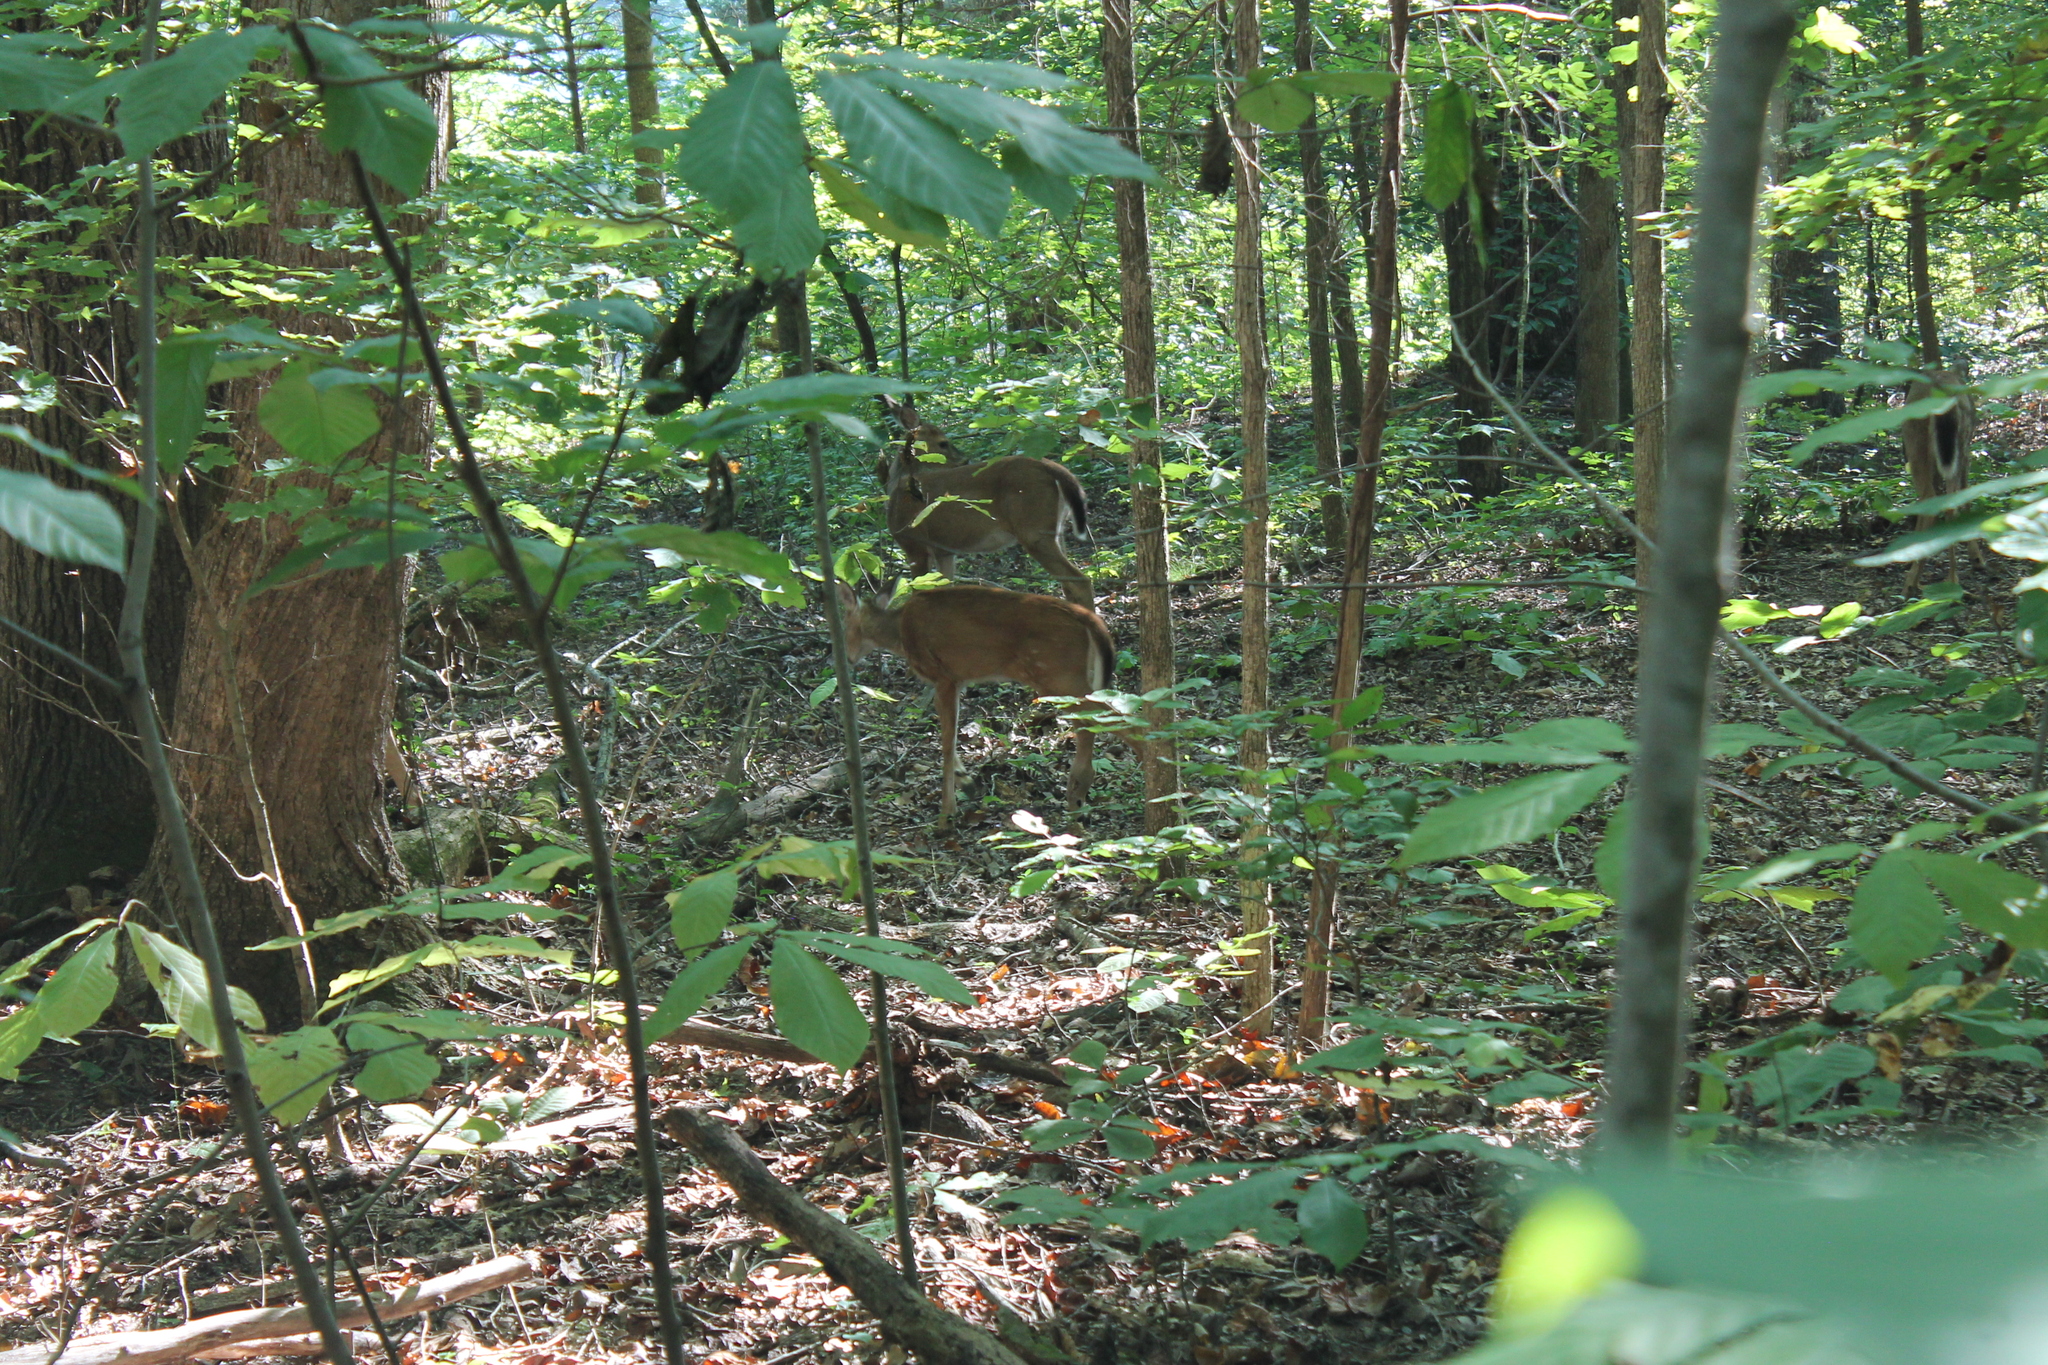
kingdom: Animalia
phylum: Chordata
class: Mammalia
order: Artiodactyla
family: Cervidae
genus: Odocoileus
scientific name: Odocoileus virginianus
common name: White-tailed deer
